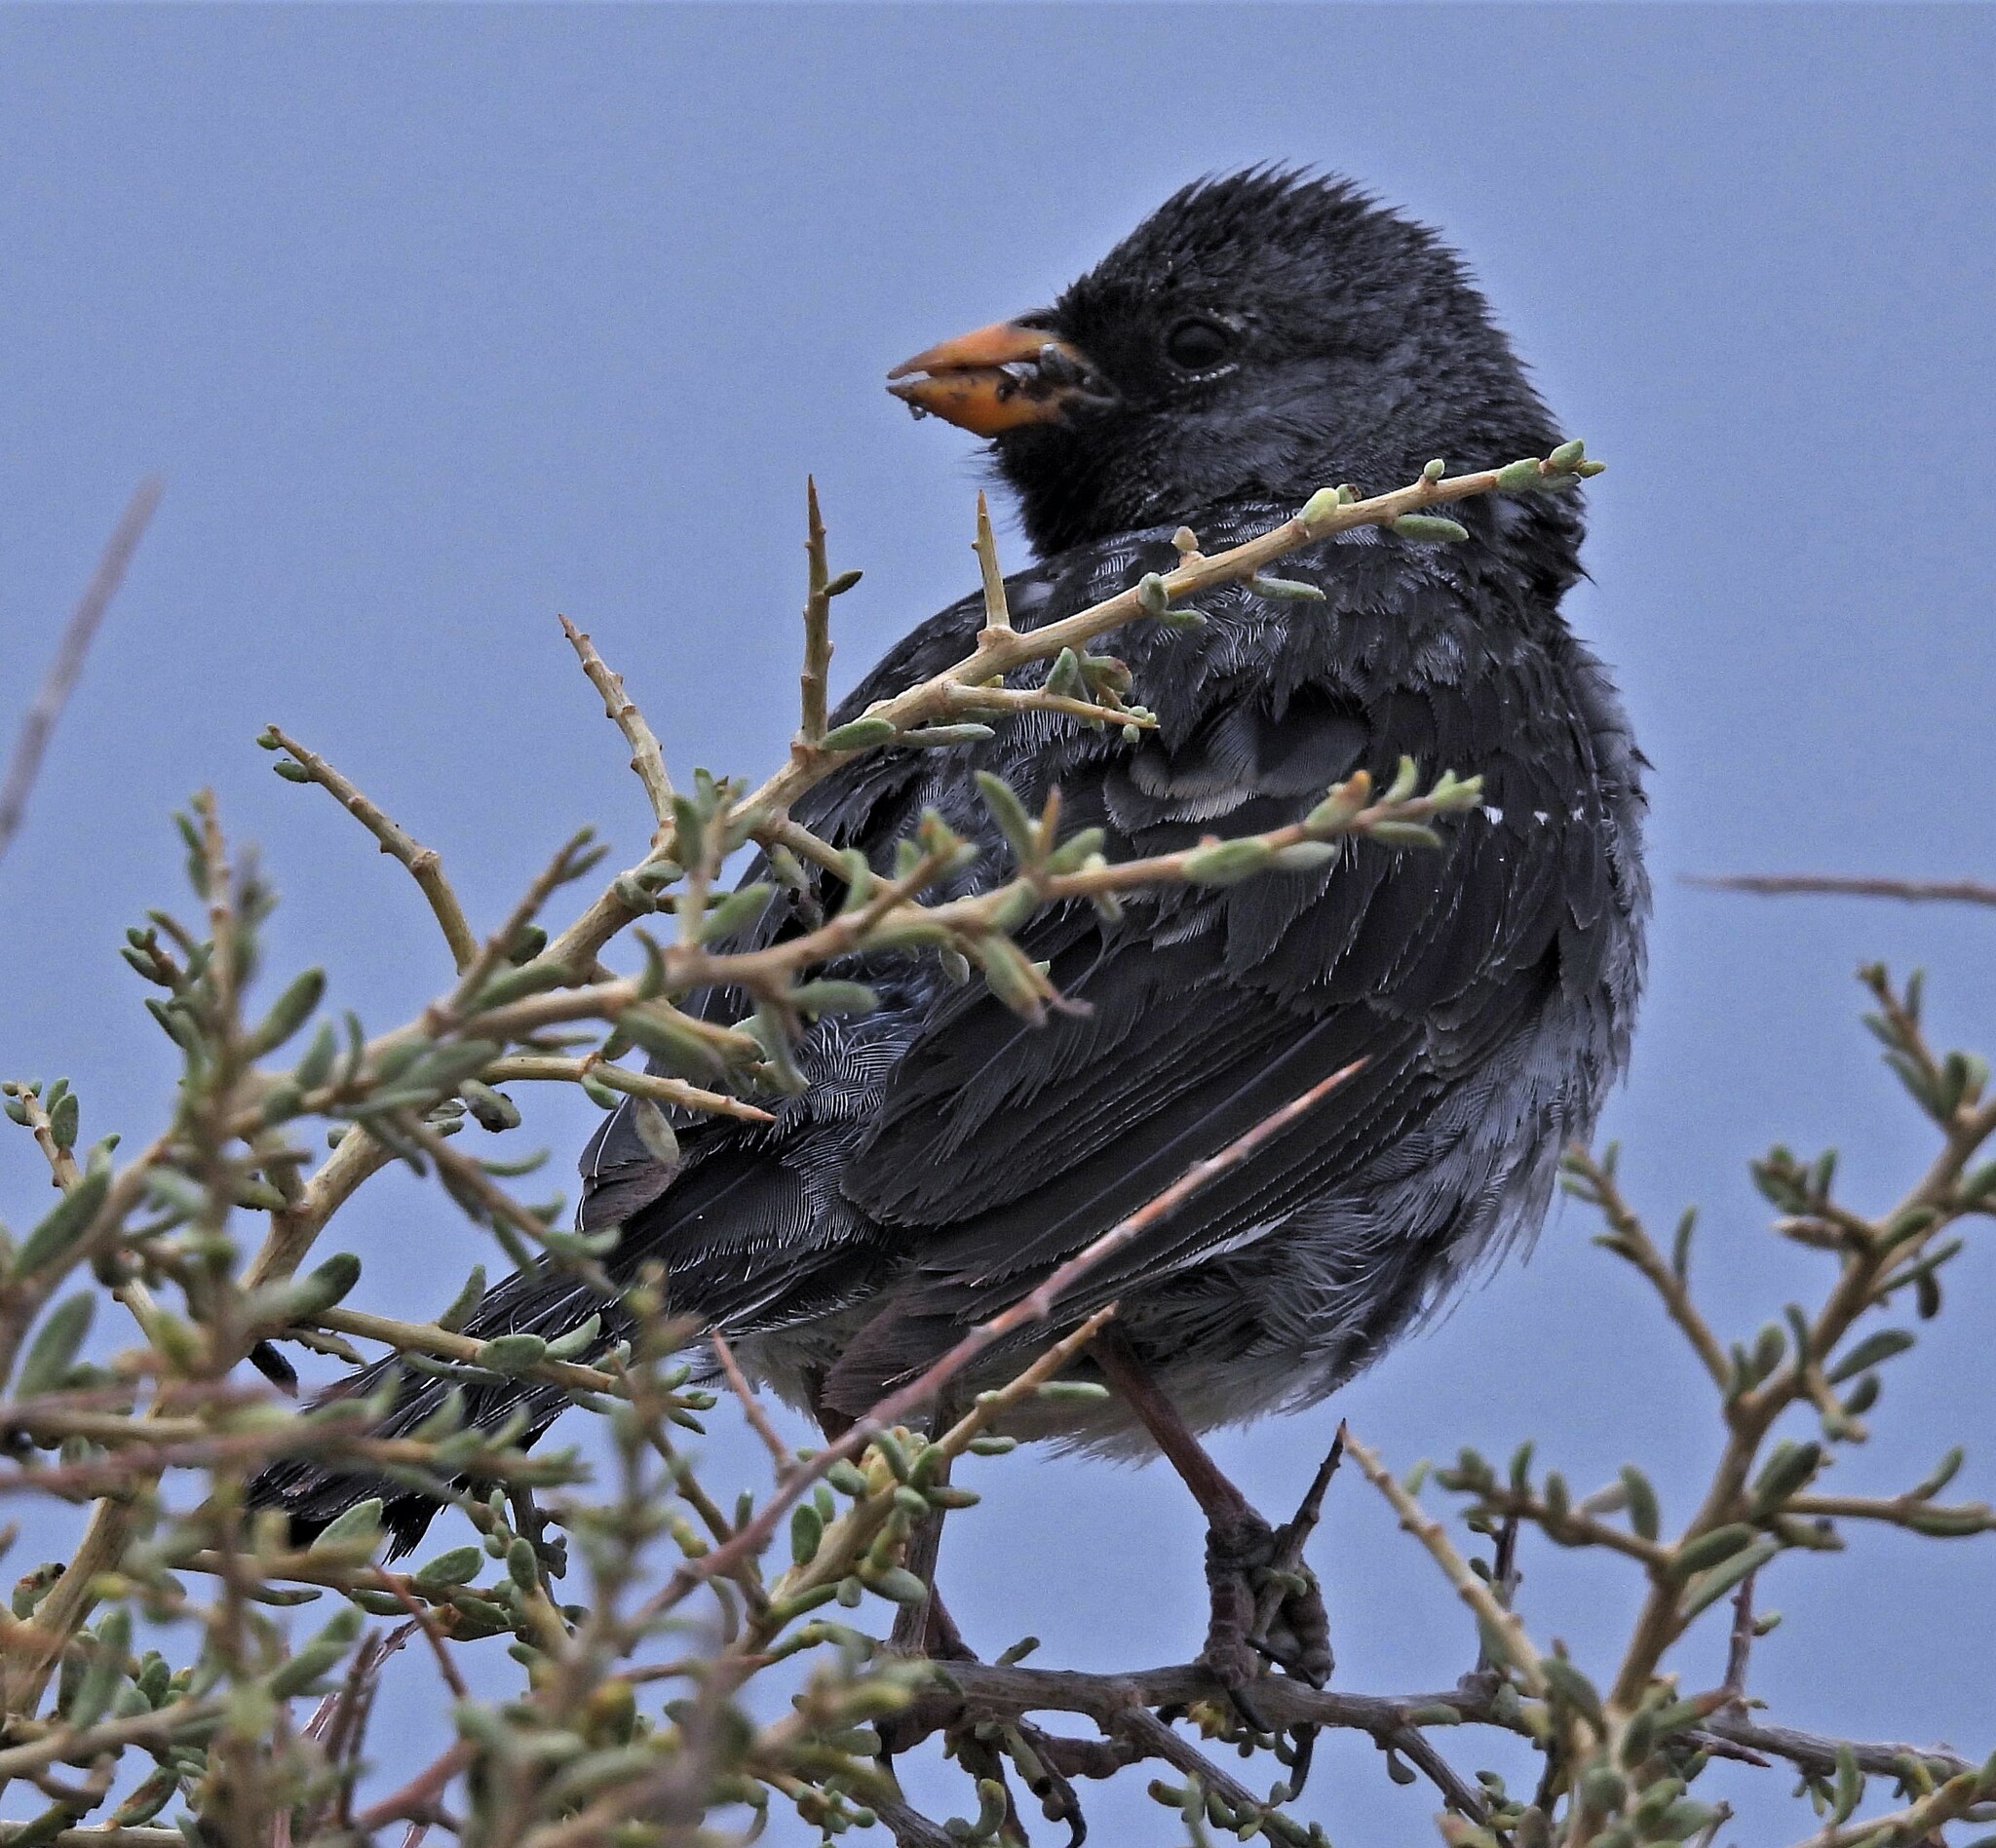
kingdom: Animalia
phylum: Chordata
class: Aves
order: Passeriformes
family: Thraupidae
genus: Rhopospina
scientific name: Rhopospina fruticeti
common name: Mourning sierra finch
